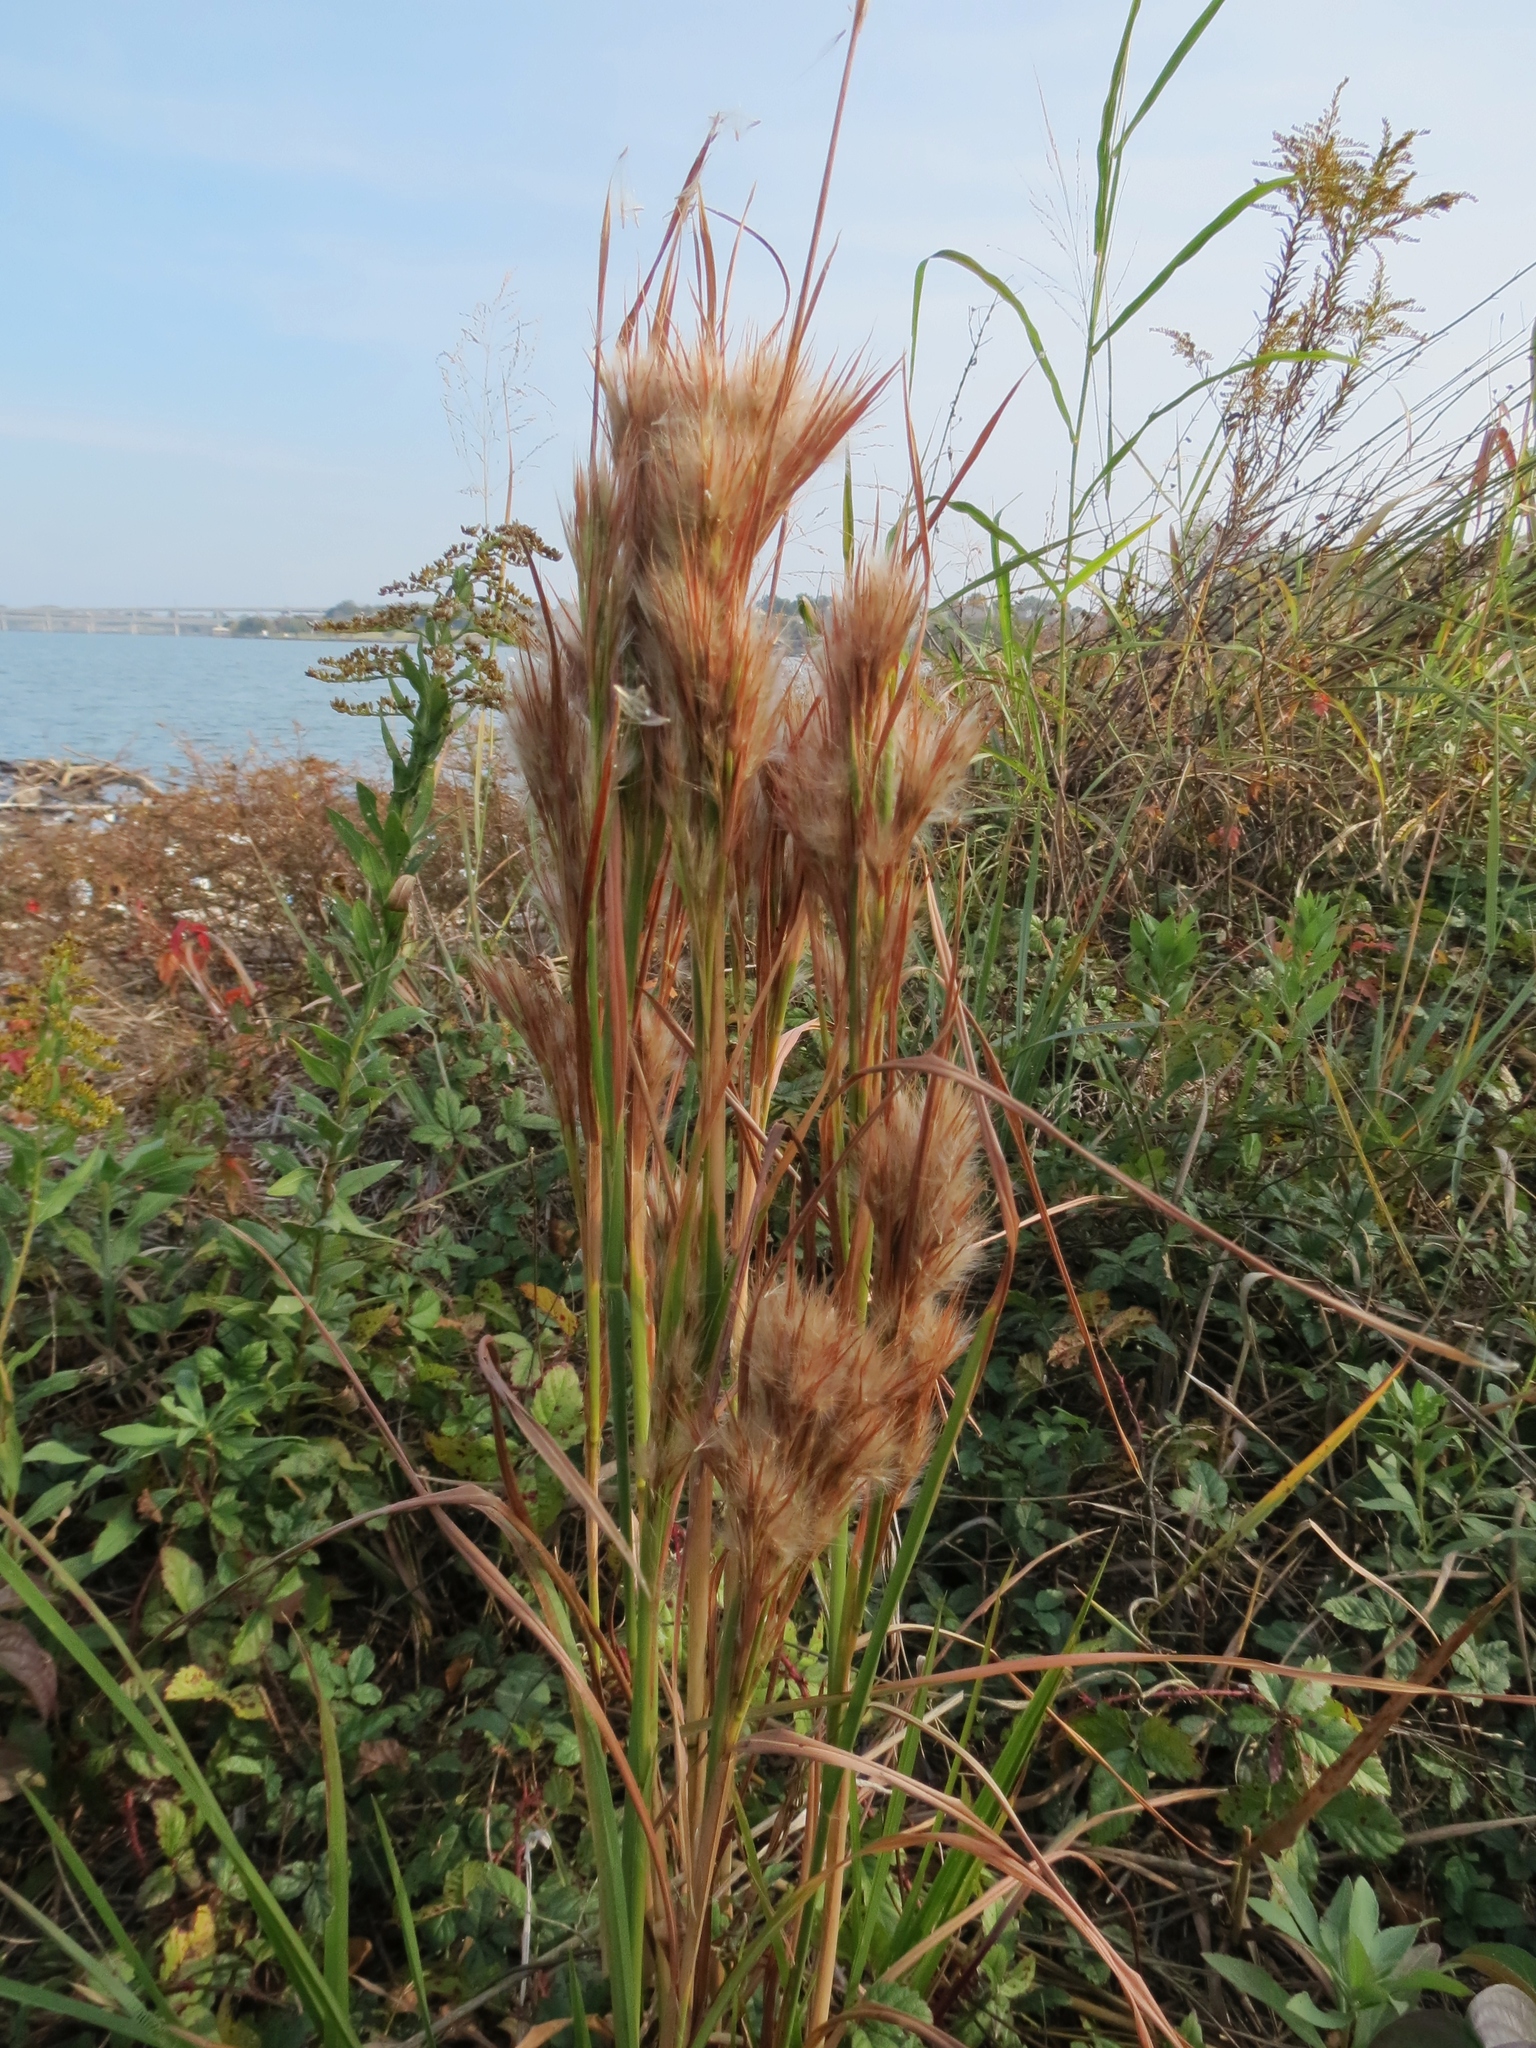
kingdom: Plantae
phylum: Tracheophyta
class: Liliopsida
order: Poales
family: Poaceae
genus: Andropogon
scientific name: Andropogon tenuispatheus
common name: Bushy bluestem
